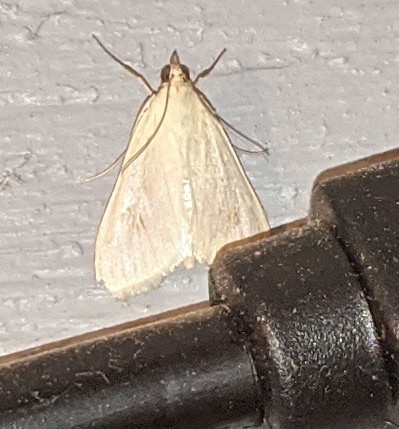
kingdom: Animalia
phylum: Arthropoda
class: Insecta
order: Lepidoptera
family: Crambidae
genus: Sitochroa
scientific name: Sitochroa palealis
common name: Greenish-yellow sitochroa moth
